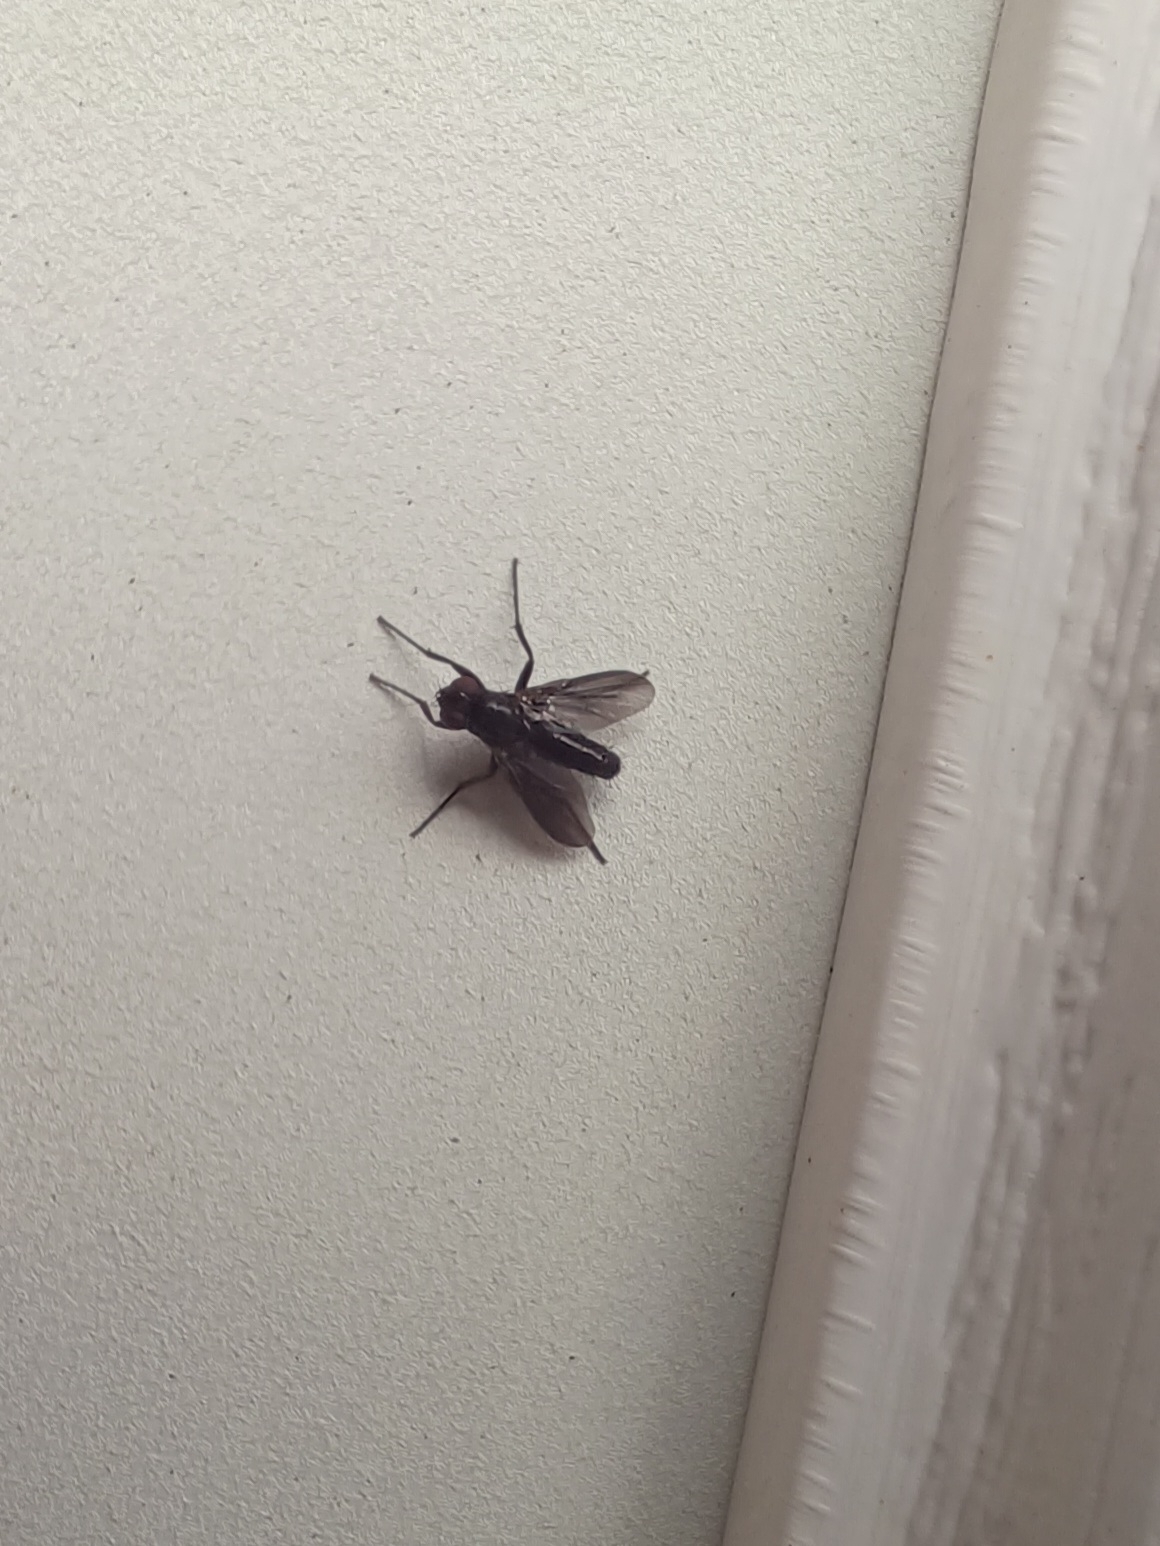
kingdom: Animalia
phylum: Arthropoda
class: Insecta
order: Diptera
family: Calliphoridae
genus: Melanophora
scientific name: Melanophora roralis
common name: Smoky-winged woodlouse-fly
